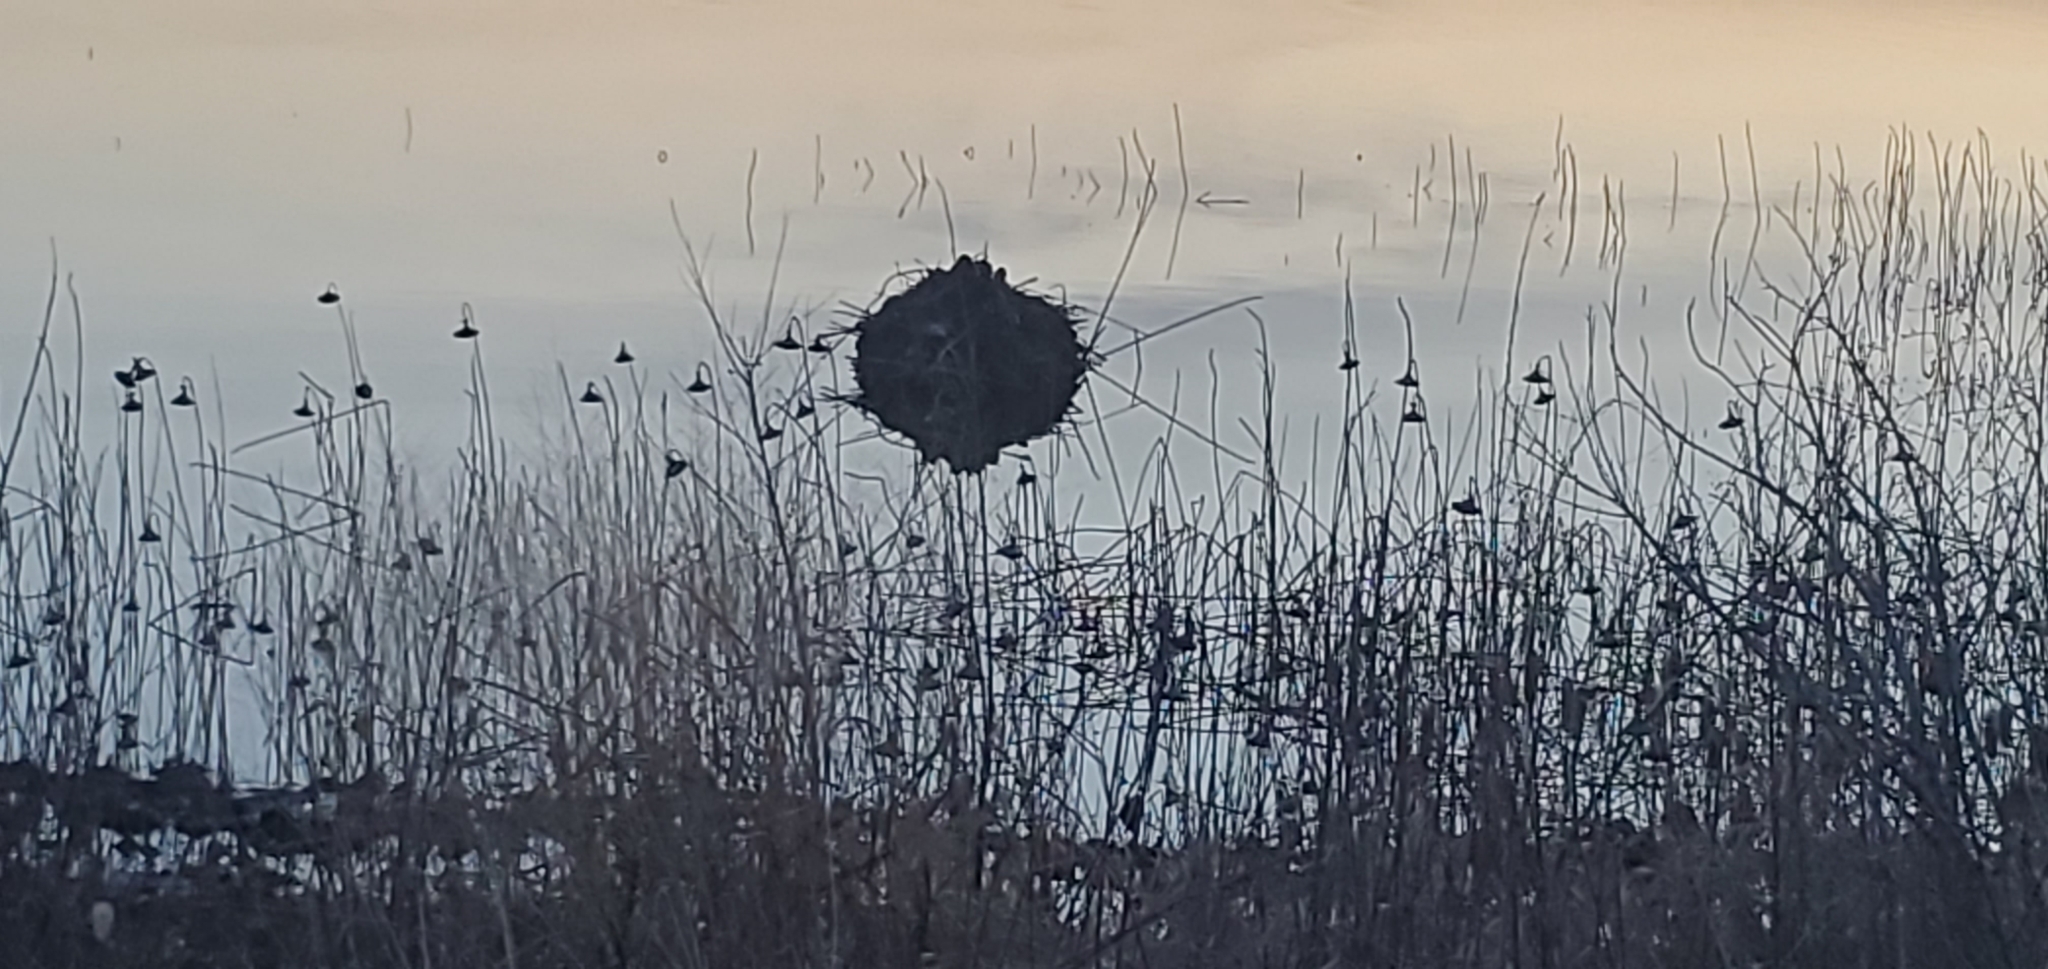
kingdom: Animalia
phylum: Chordata
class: Mammalia
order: Rodentia
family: Cricetidae
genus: Ondatra
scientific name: Ondatra zibethicus
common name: Muskrat
